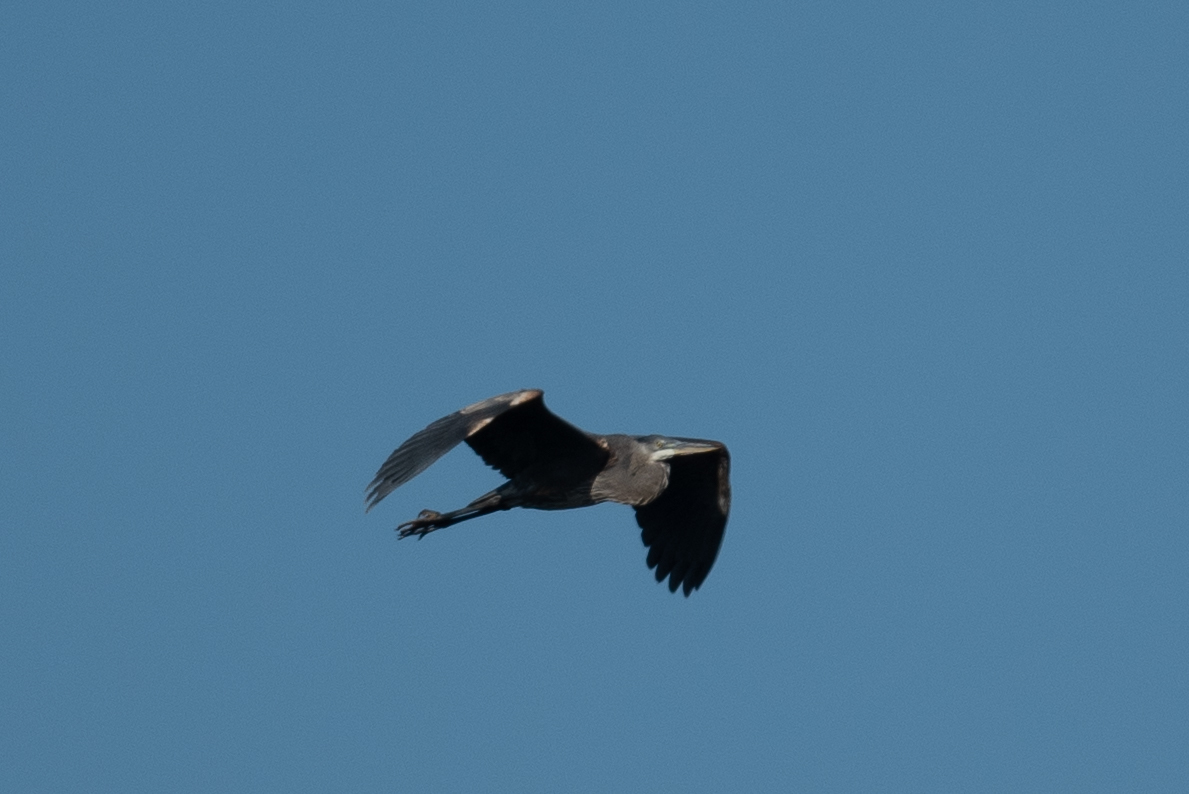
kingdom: Animalia
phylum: Chordata
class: Aves
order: Pelecaniformes
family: Ardeidae
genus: Ardea
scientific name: Ardea herodias
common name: Great blue heron
